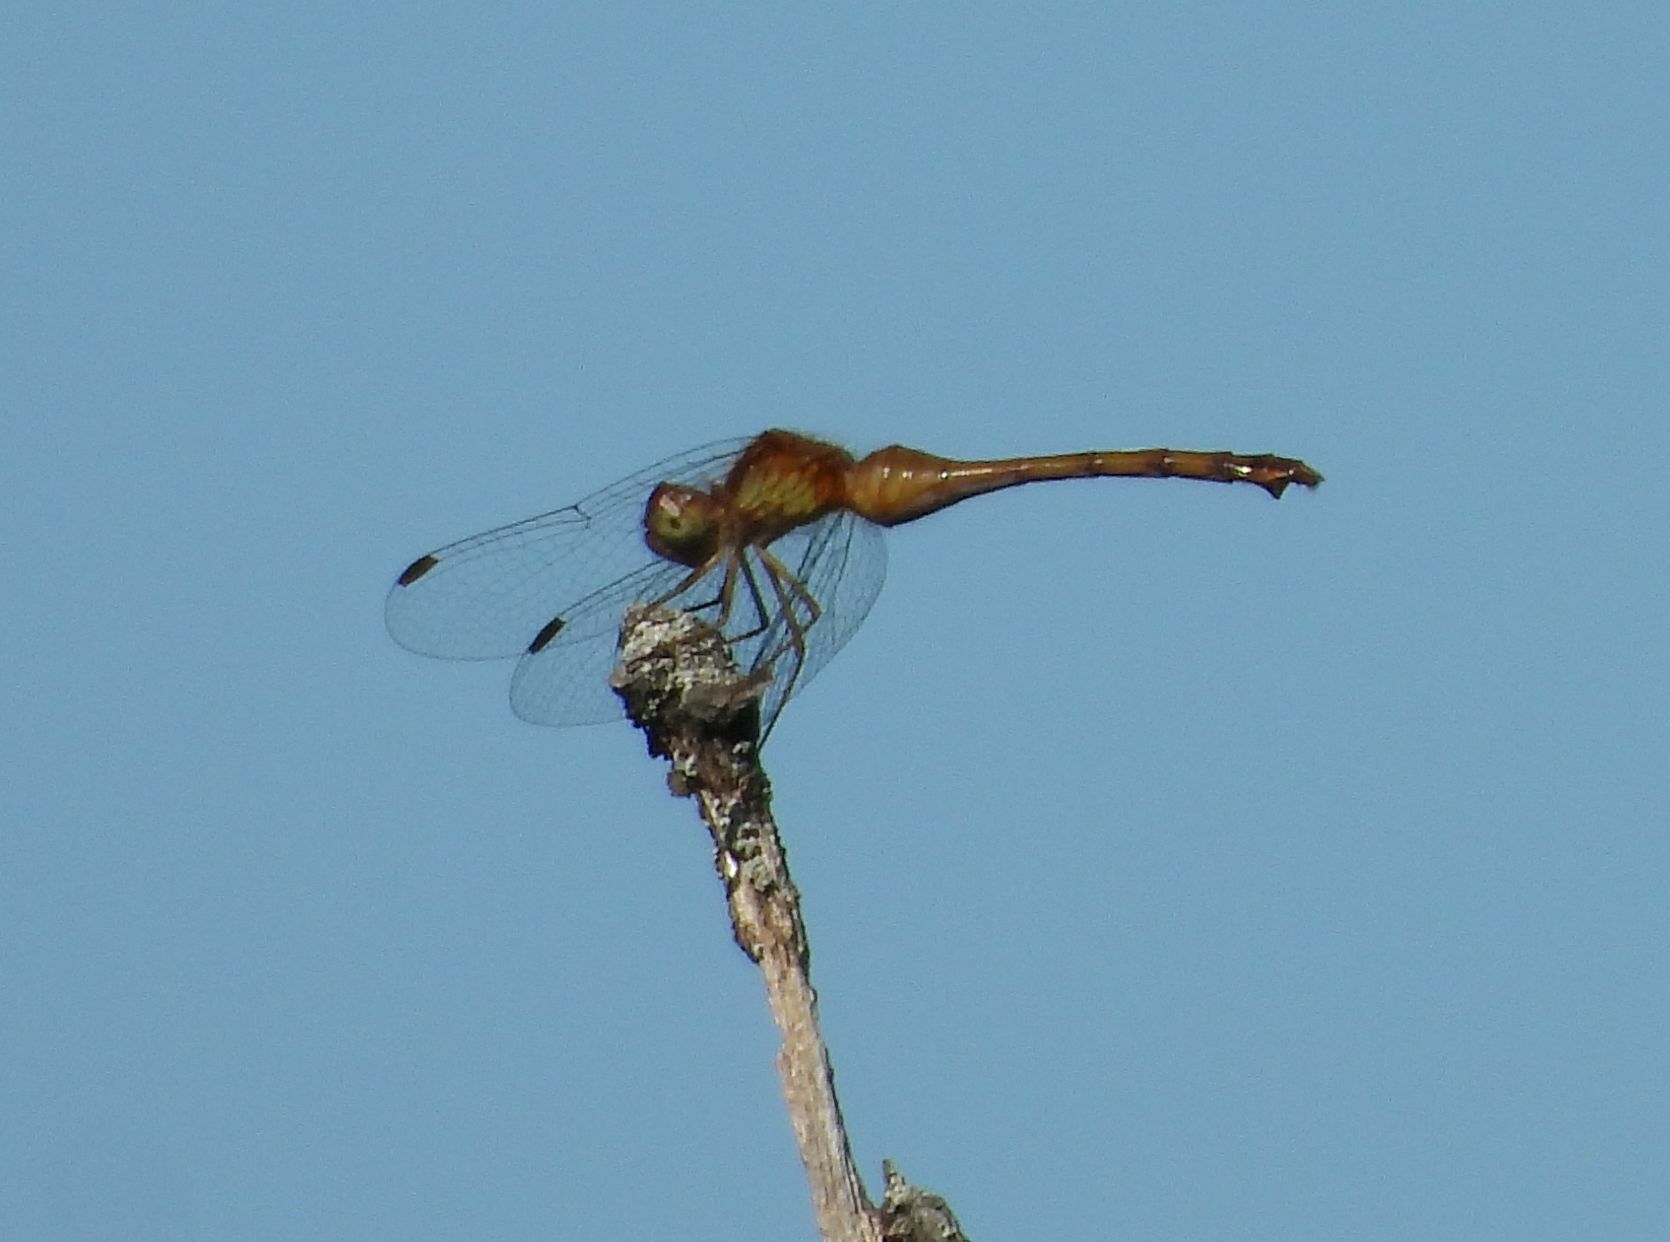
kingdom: Animalia
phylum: Arthropoda
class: Insecta
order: Odonata
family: Libellulidae
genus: Sympetrum
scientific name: Sympetrum vicinum
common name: Autumn meadowhawk
